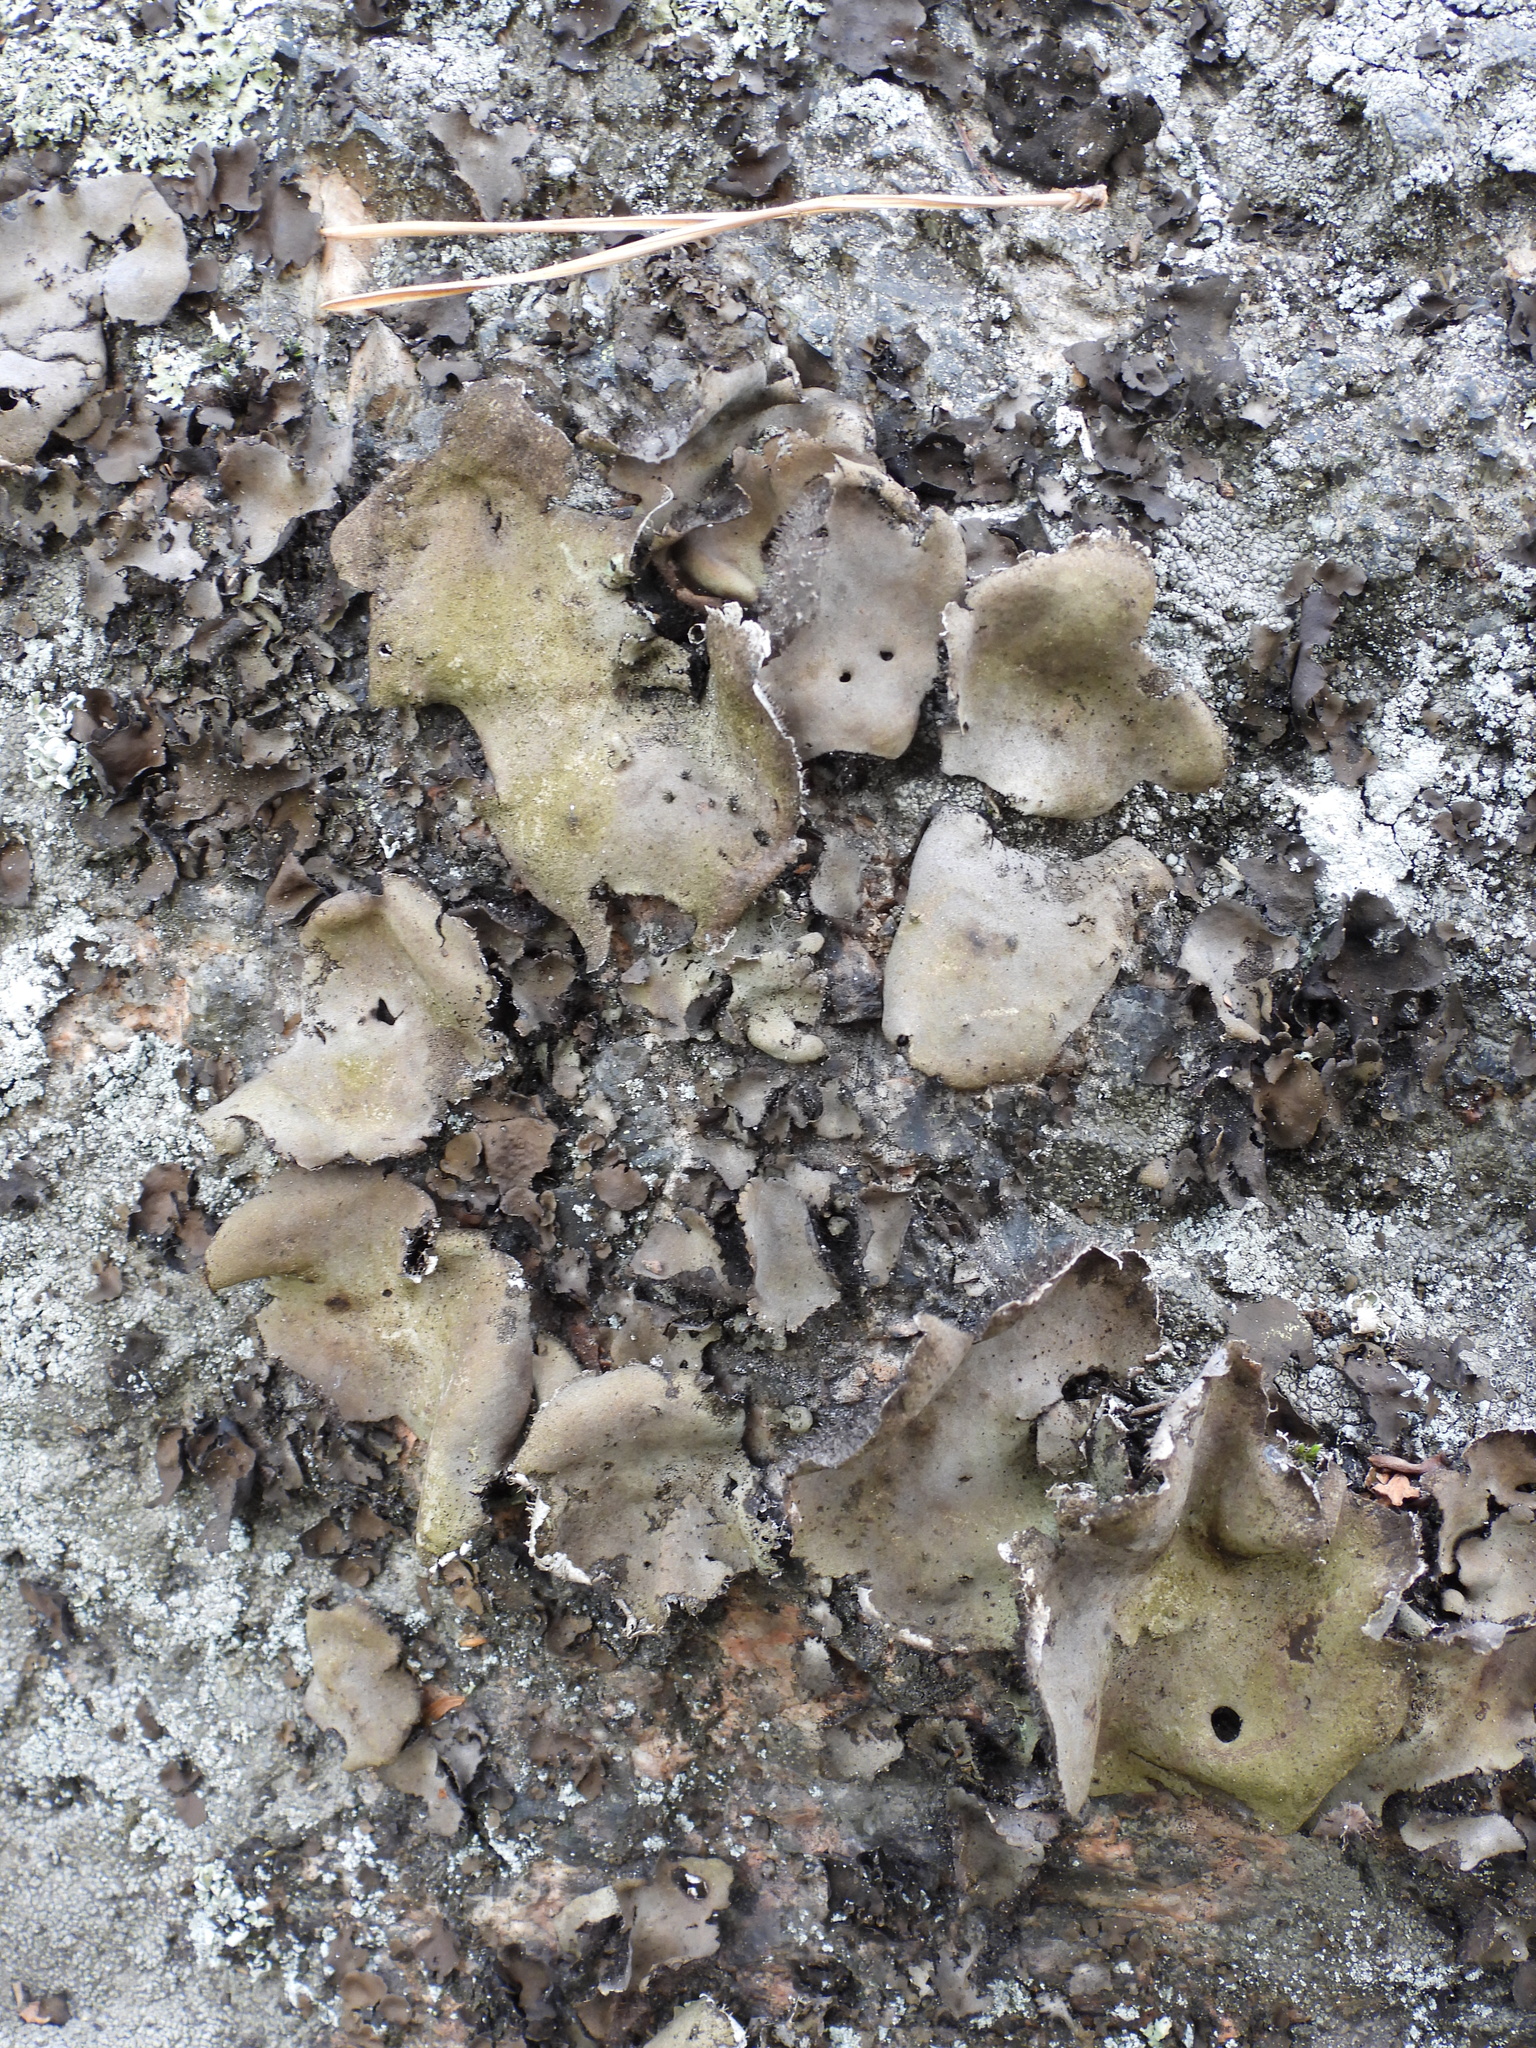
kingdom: Fungi
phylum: Ascomycota
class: Lecanoromycetes
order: Umbilicariales
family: Umbilicariaceae
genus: Umbilicaria
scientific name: Umbilicaria vellea
